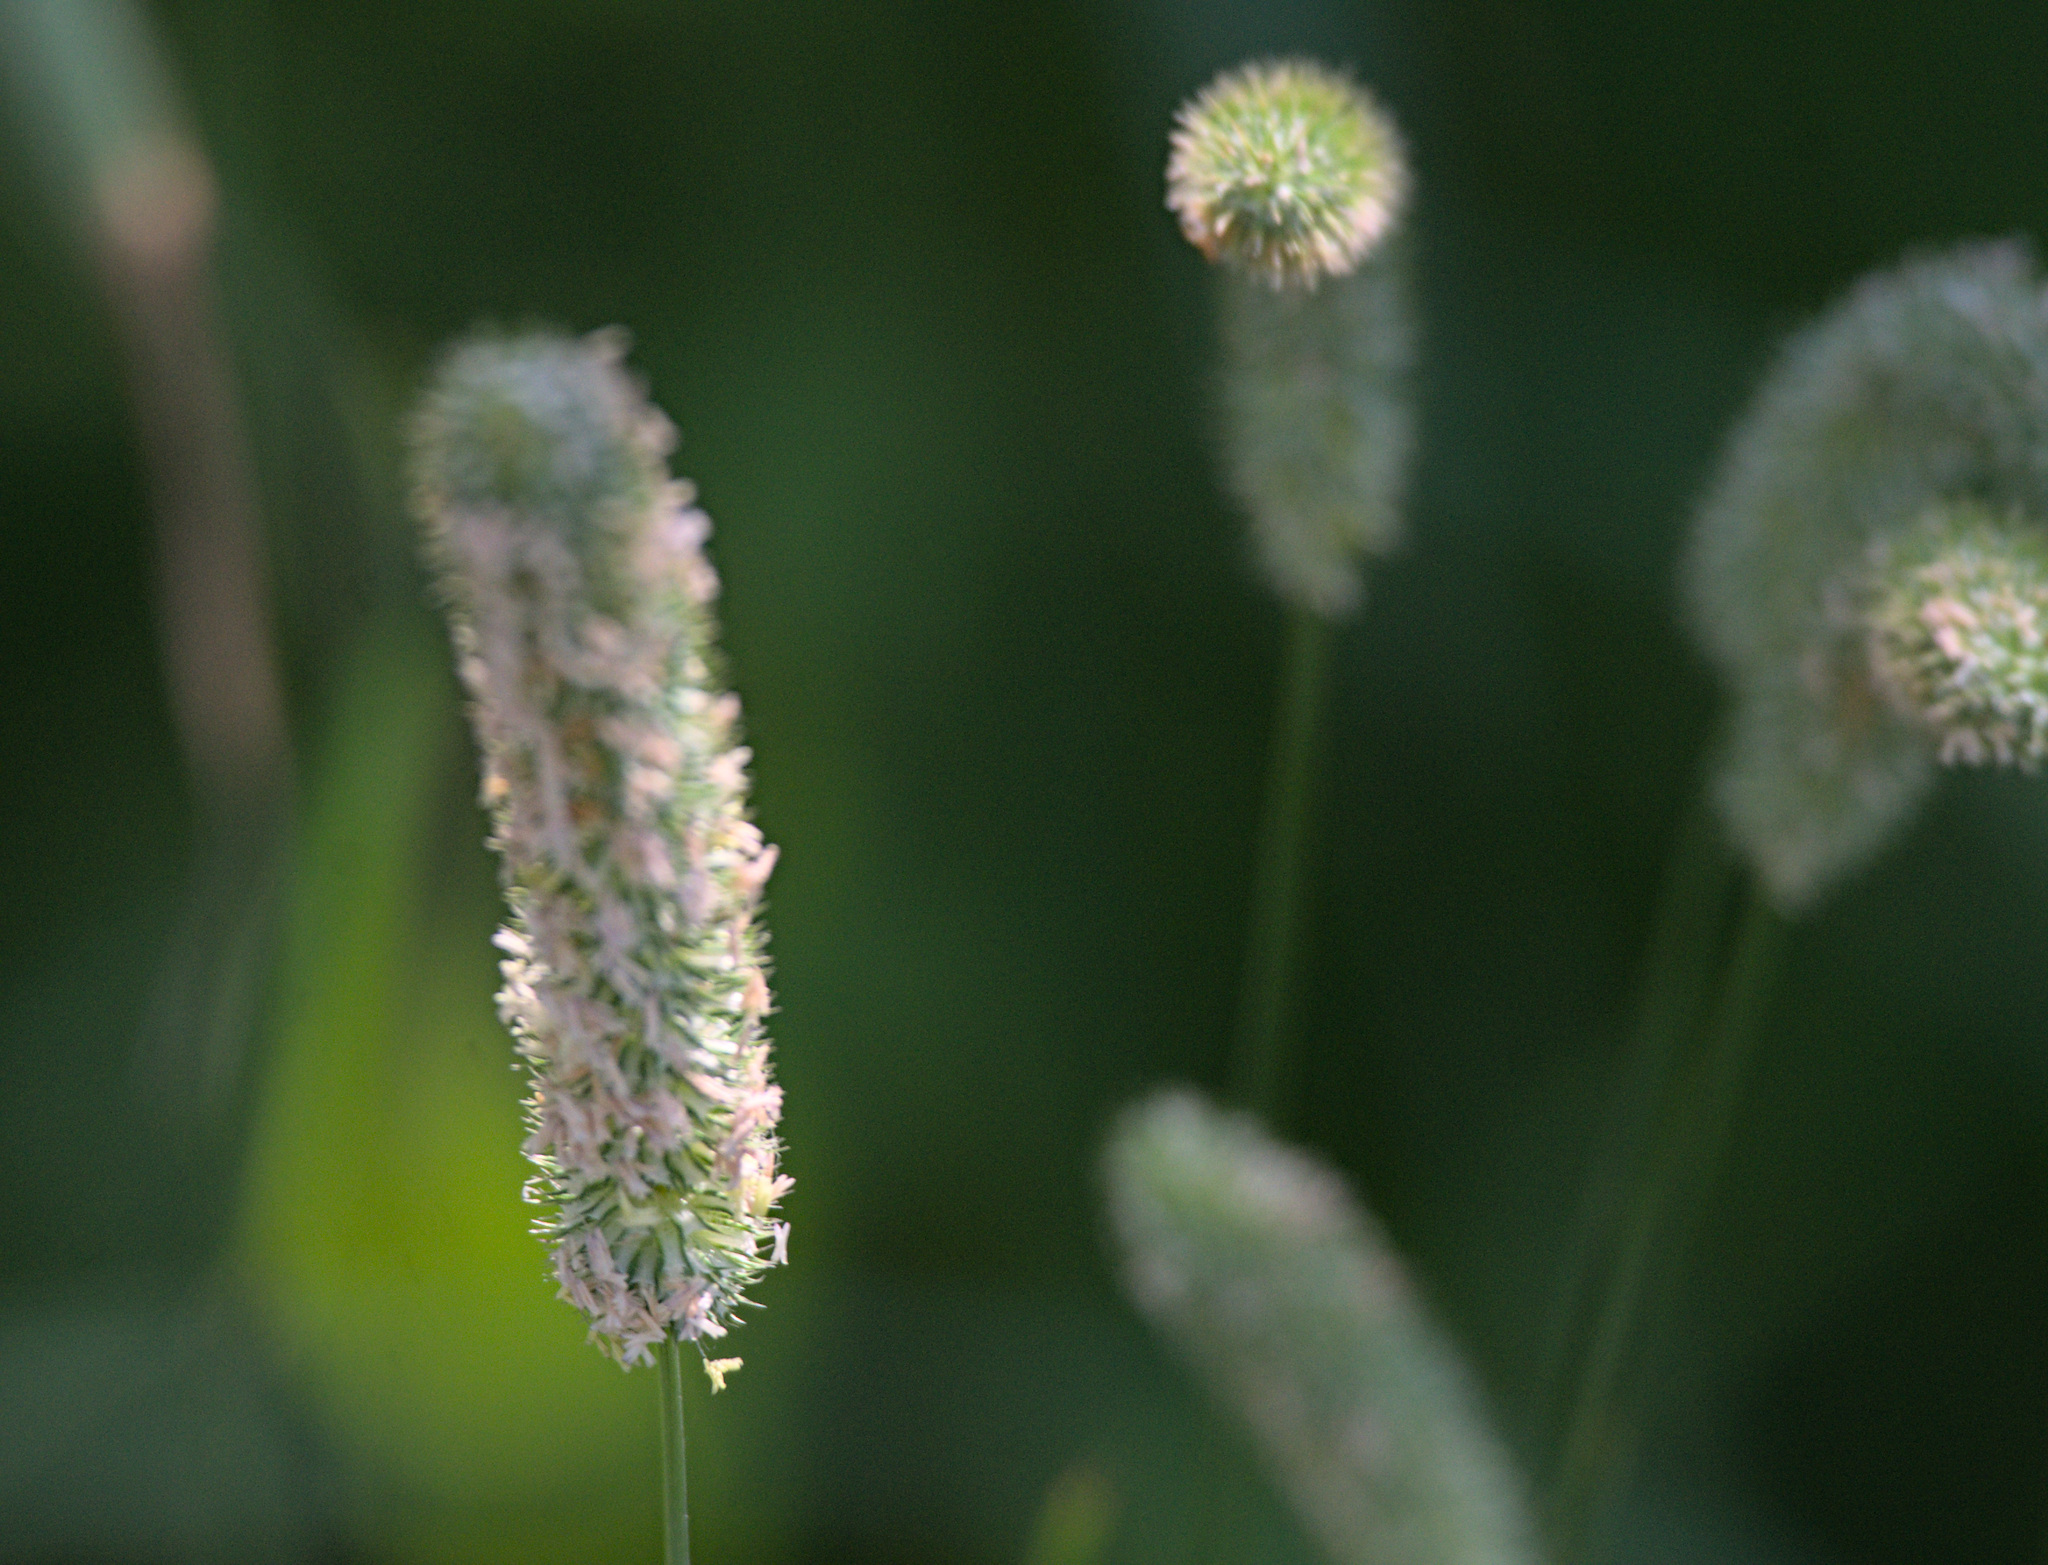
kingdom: Plantae
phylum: Tracheophyta
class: Liliopsida
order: Poales
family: Poaceae
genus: Phleum
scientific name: Phleum pratense
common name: Timothy grass
